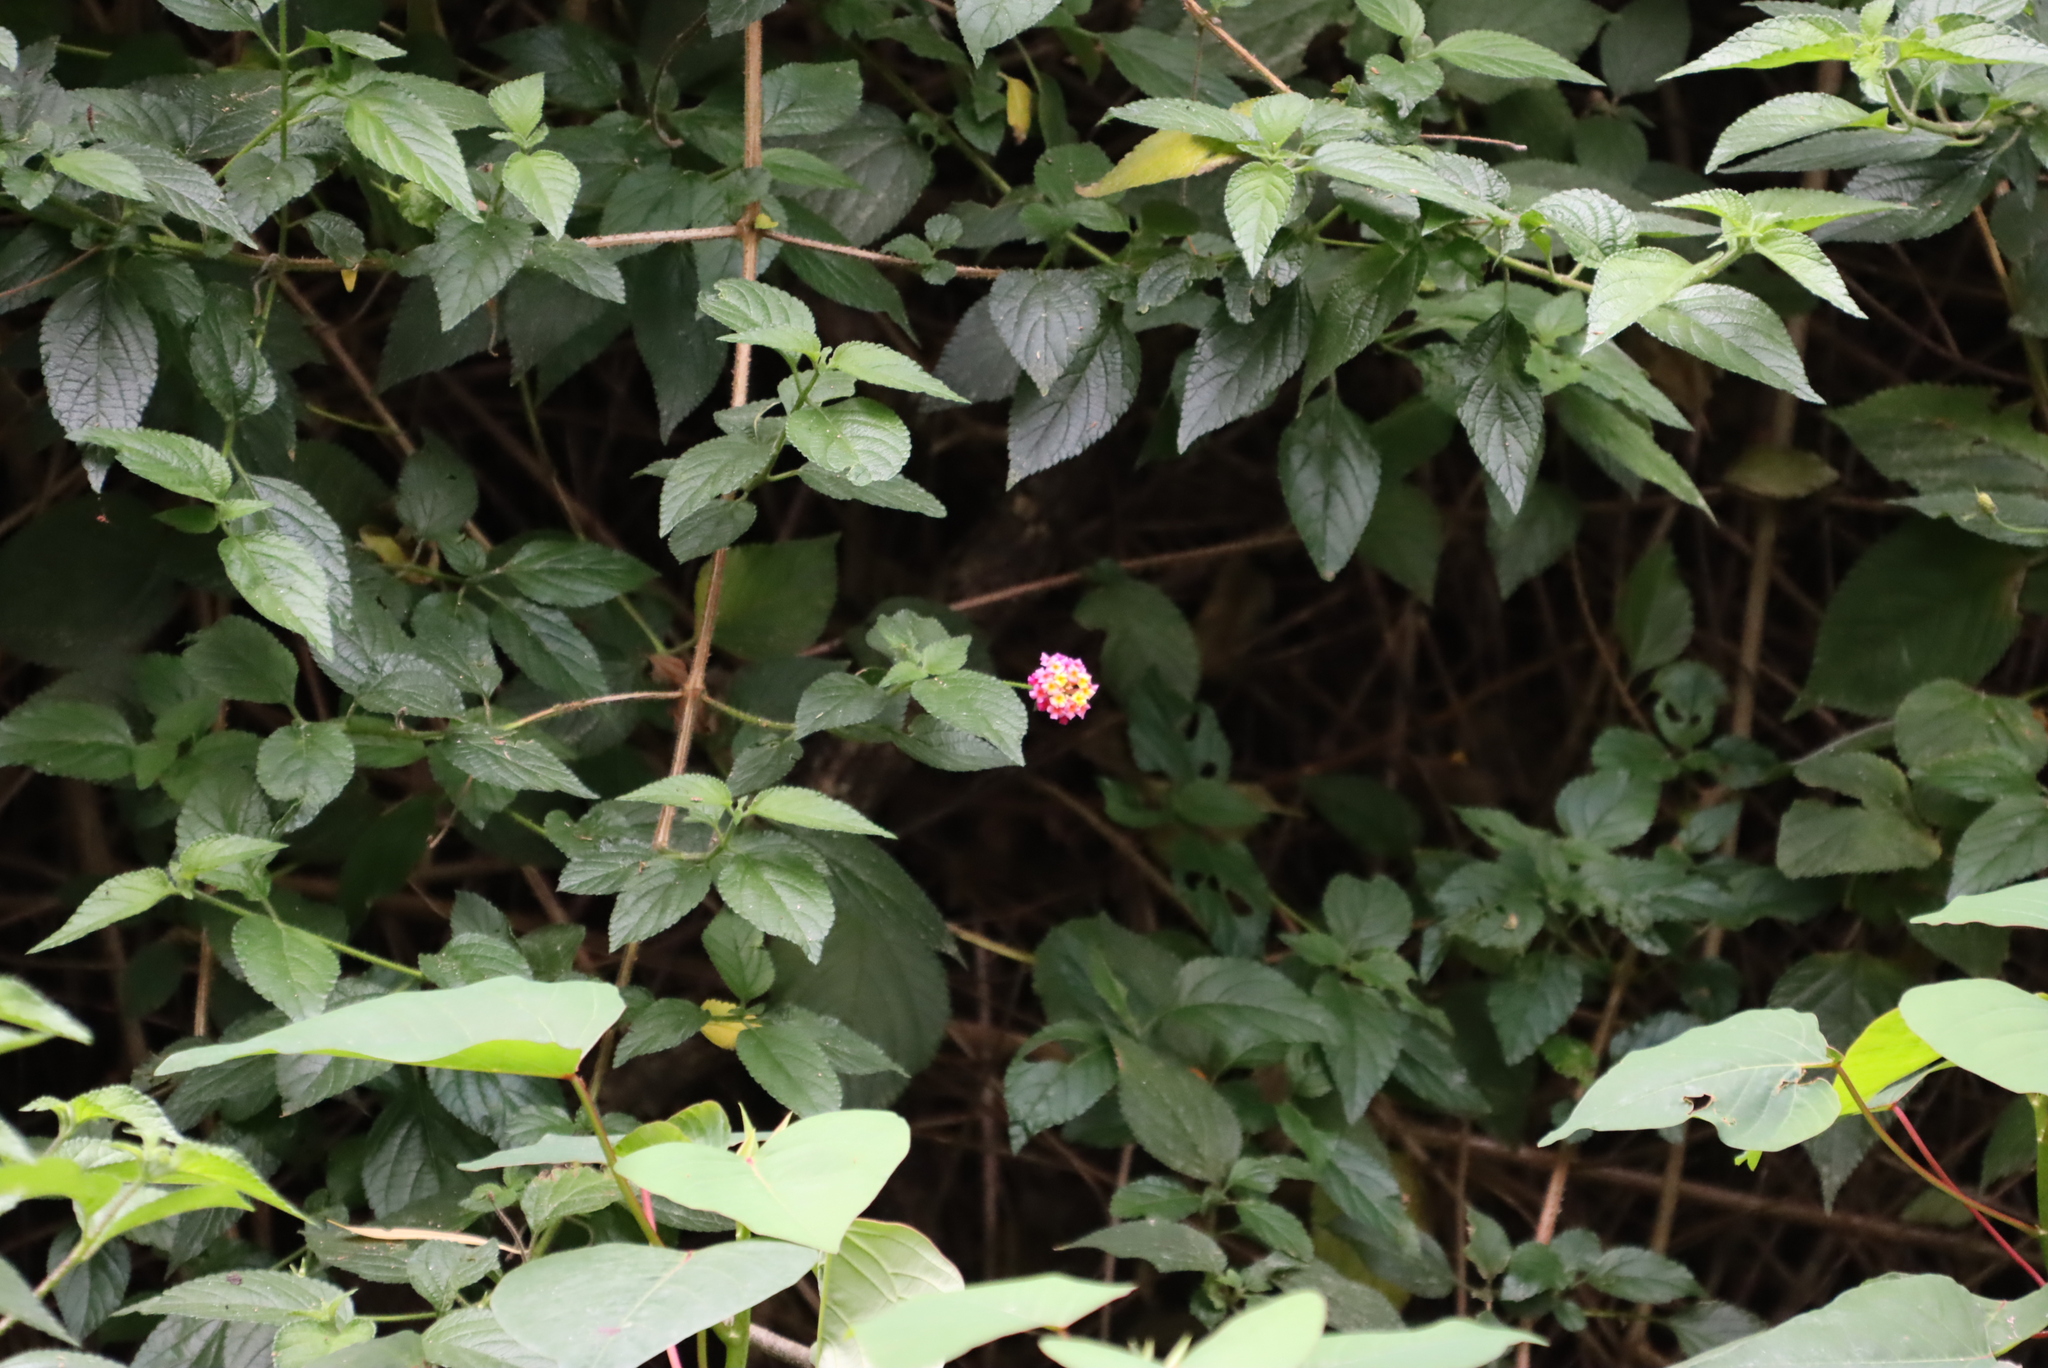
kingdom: Plantae
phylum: Tracheophyta
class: Magnoliopsida
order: Lamiales
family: Verbenaceae
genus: Lantana
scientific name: Lantana camara
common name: Lantana
